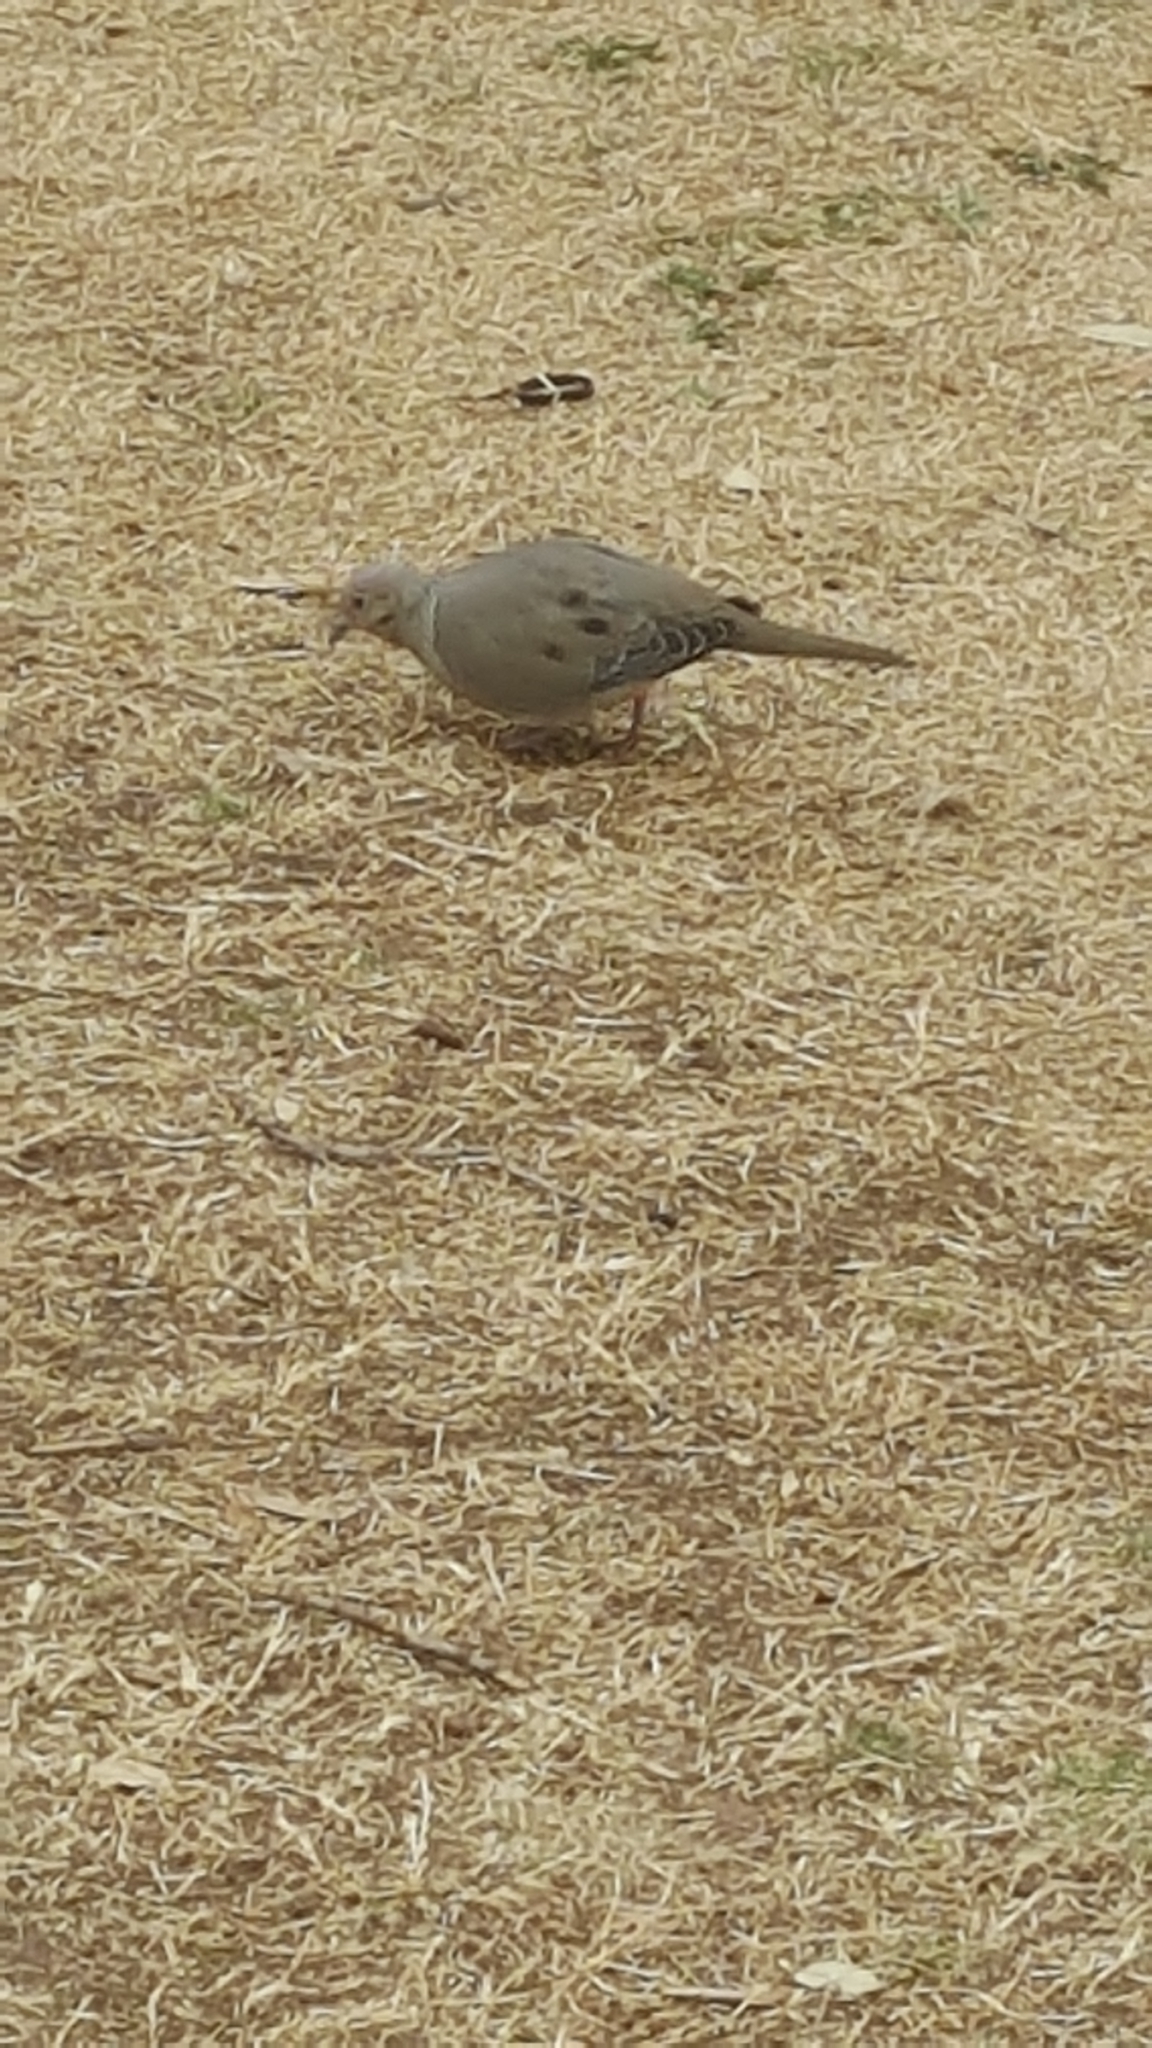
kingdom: Animalia
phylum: Chordata
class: Aves
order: Columbiformes
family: Columbidae
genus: Zenaida
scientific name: Zenaida macroura
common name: Mourning dove
